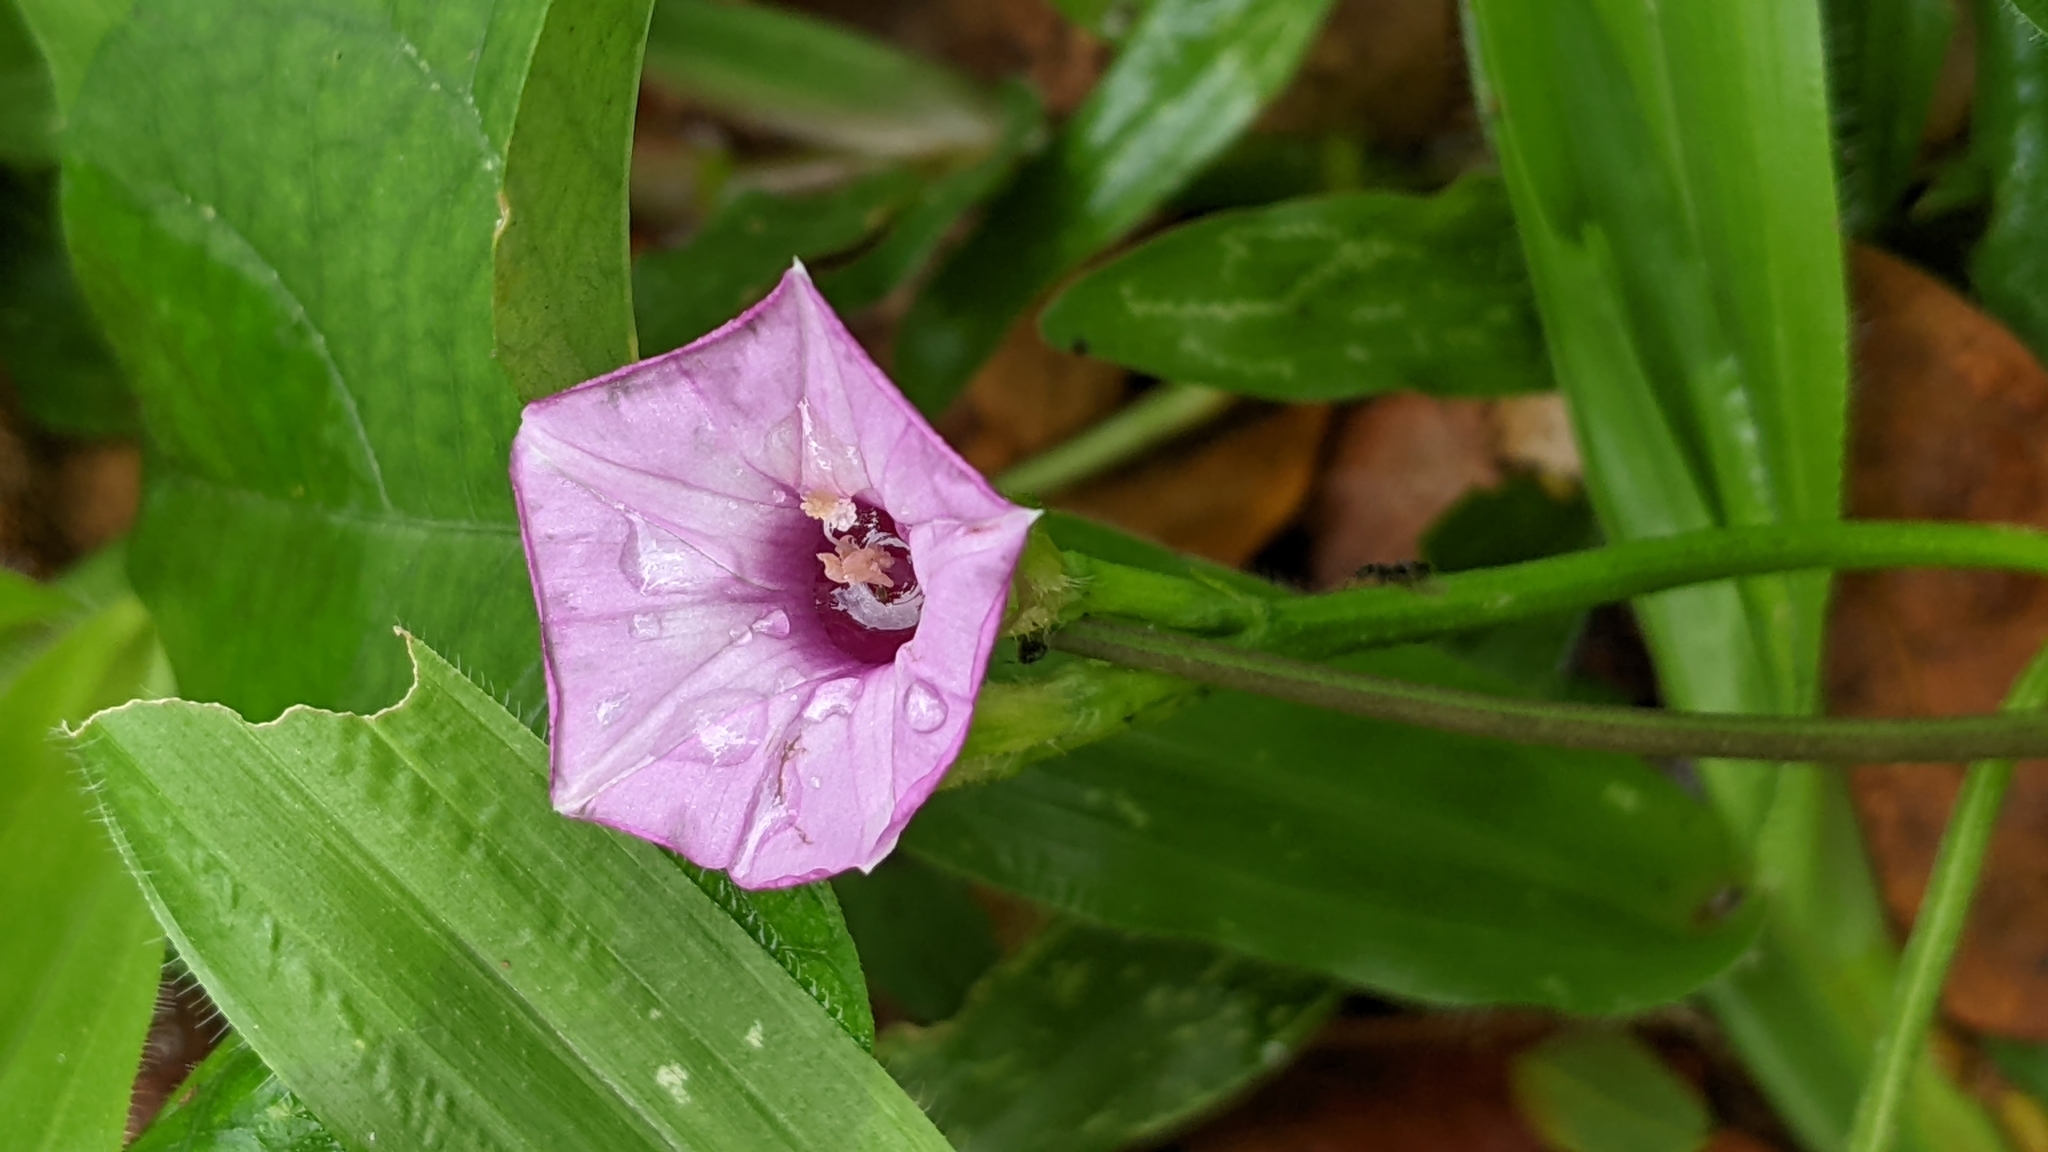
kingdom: Plantae
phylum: Tracheophyta
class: Magnoliopsida
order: Solanales
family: Convolvulaceae
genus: Ipomoea
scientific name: Ipomoea triloba
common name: Little-bell
